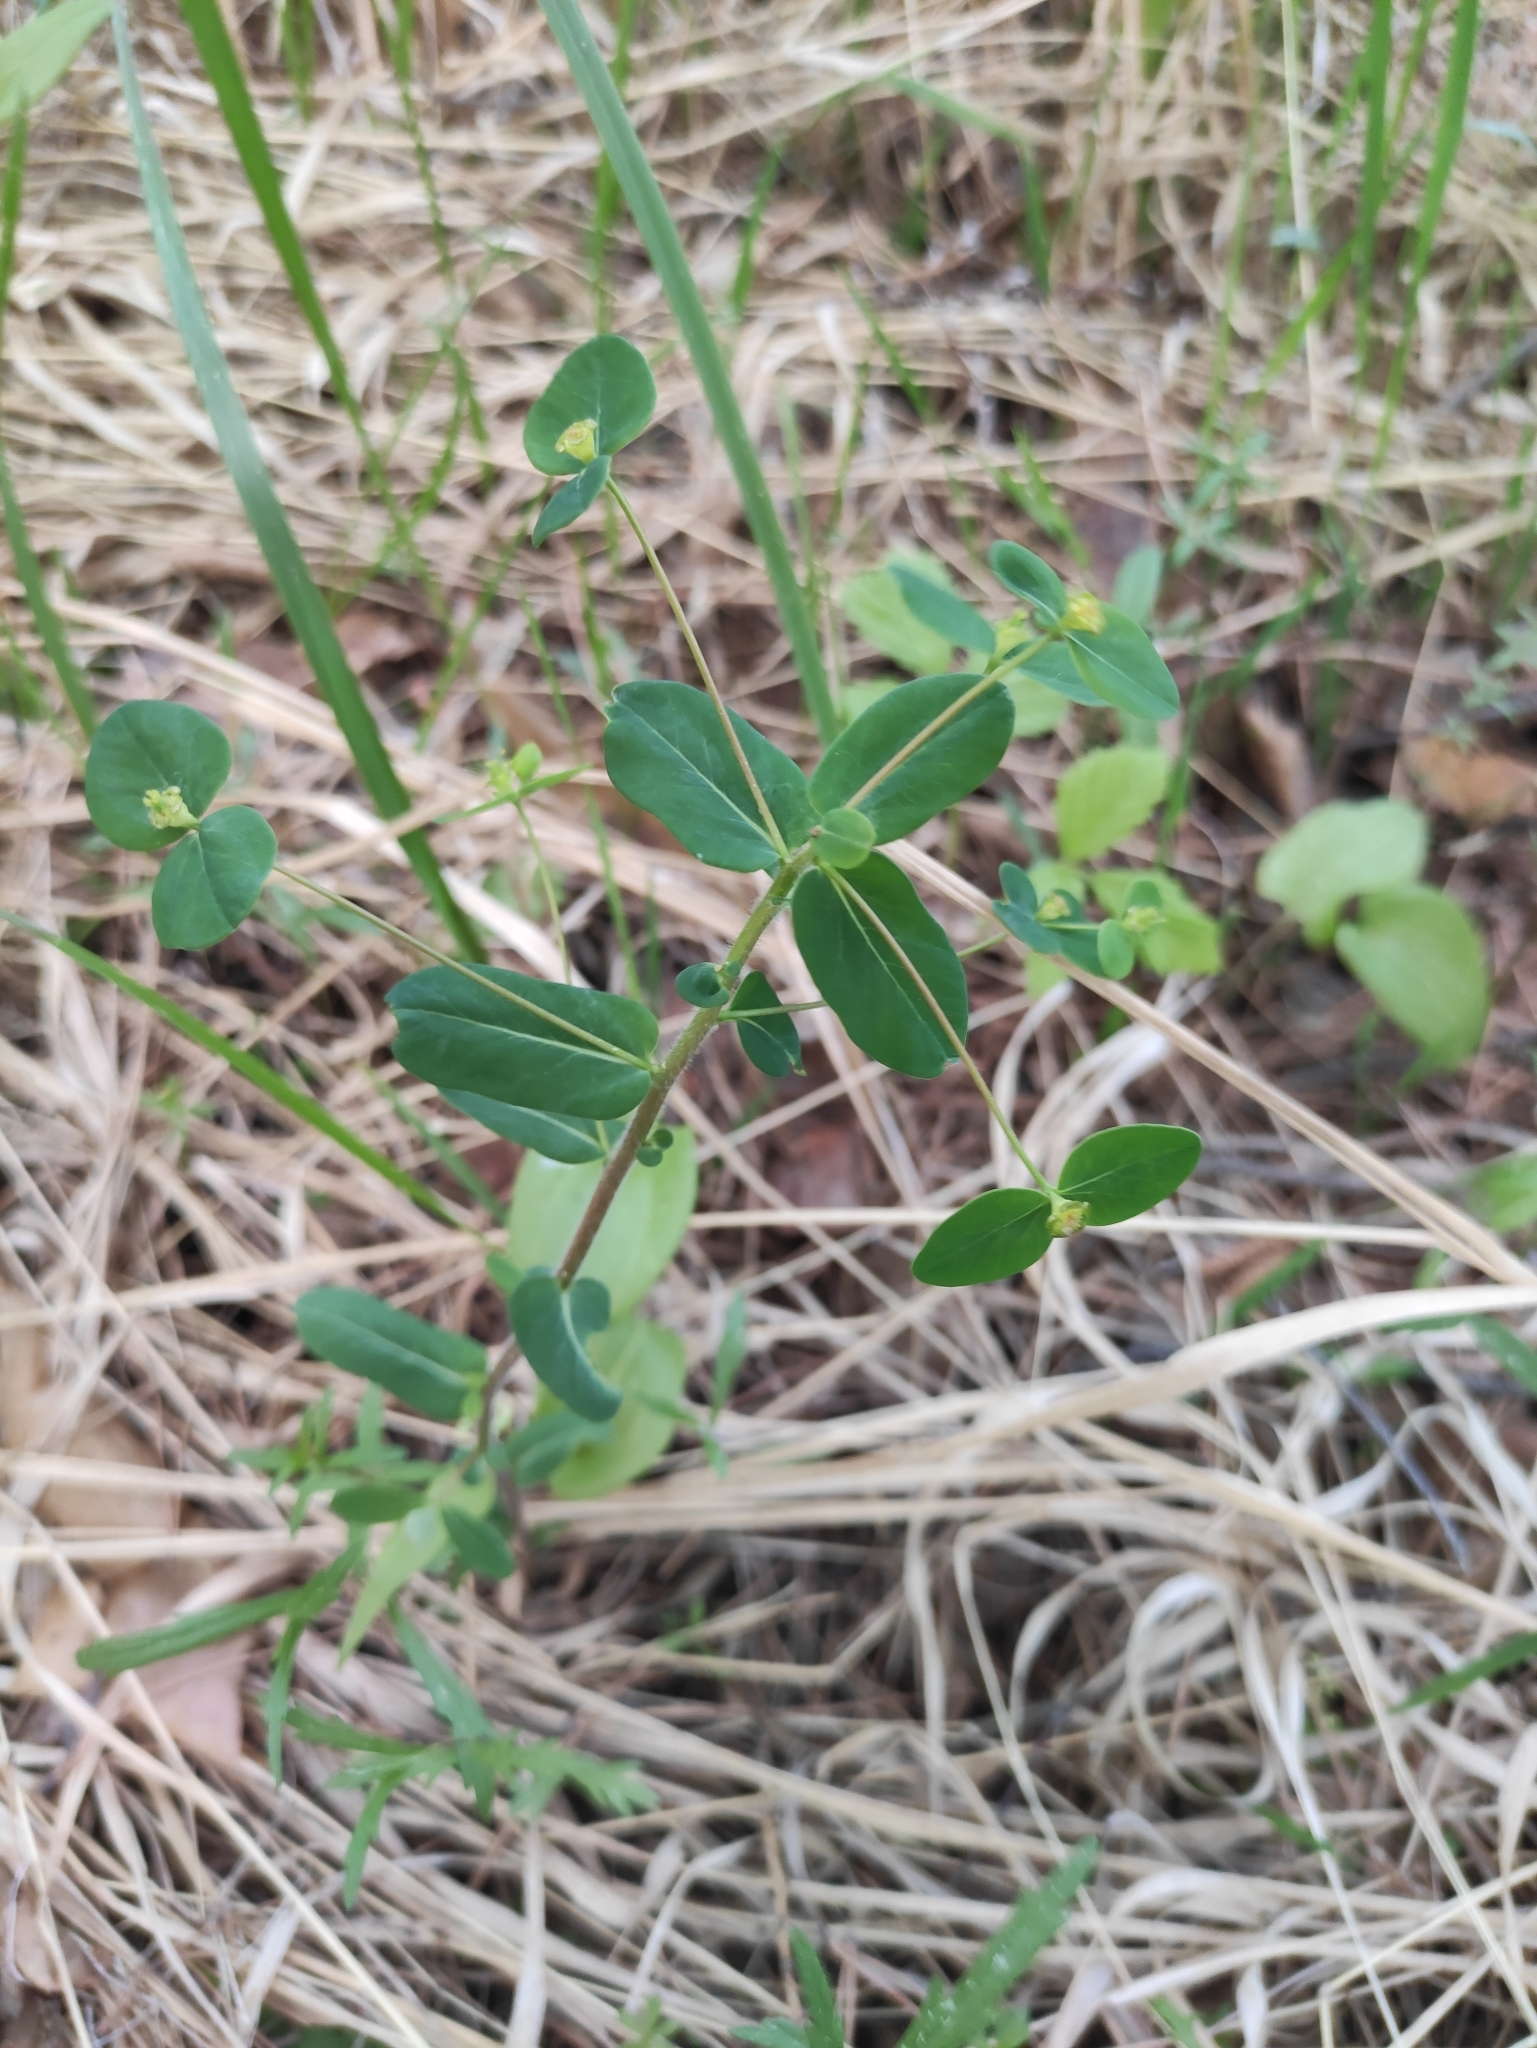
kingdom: Plantae
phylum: Tracheophyta
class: Magnoliopsida
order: Malpighiales
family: Euphorbiaceae
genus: Euphorbia
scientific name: Euphorbia jenisseiensis
